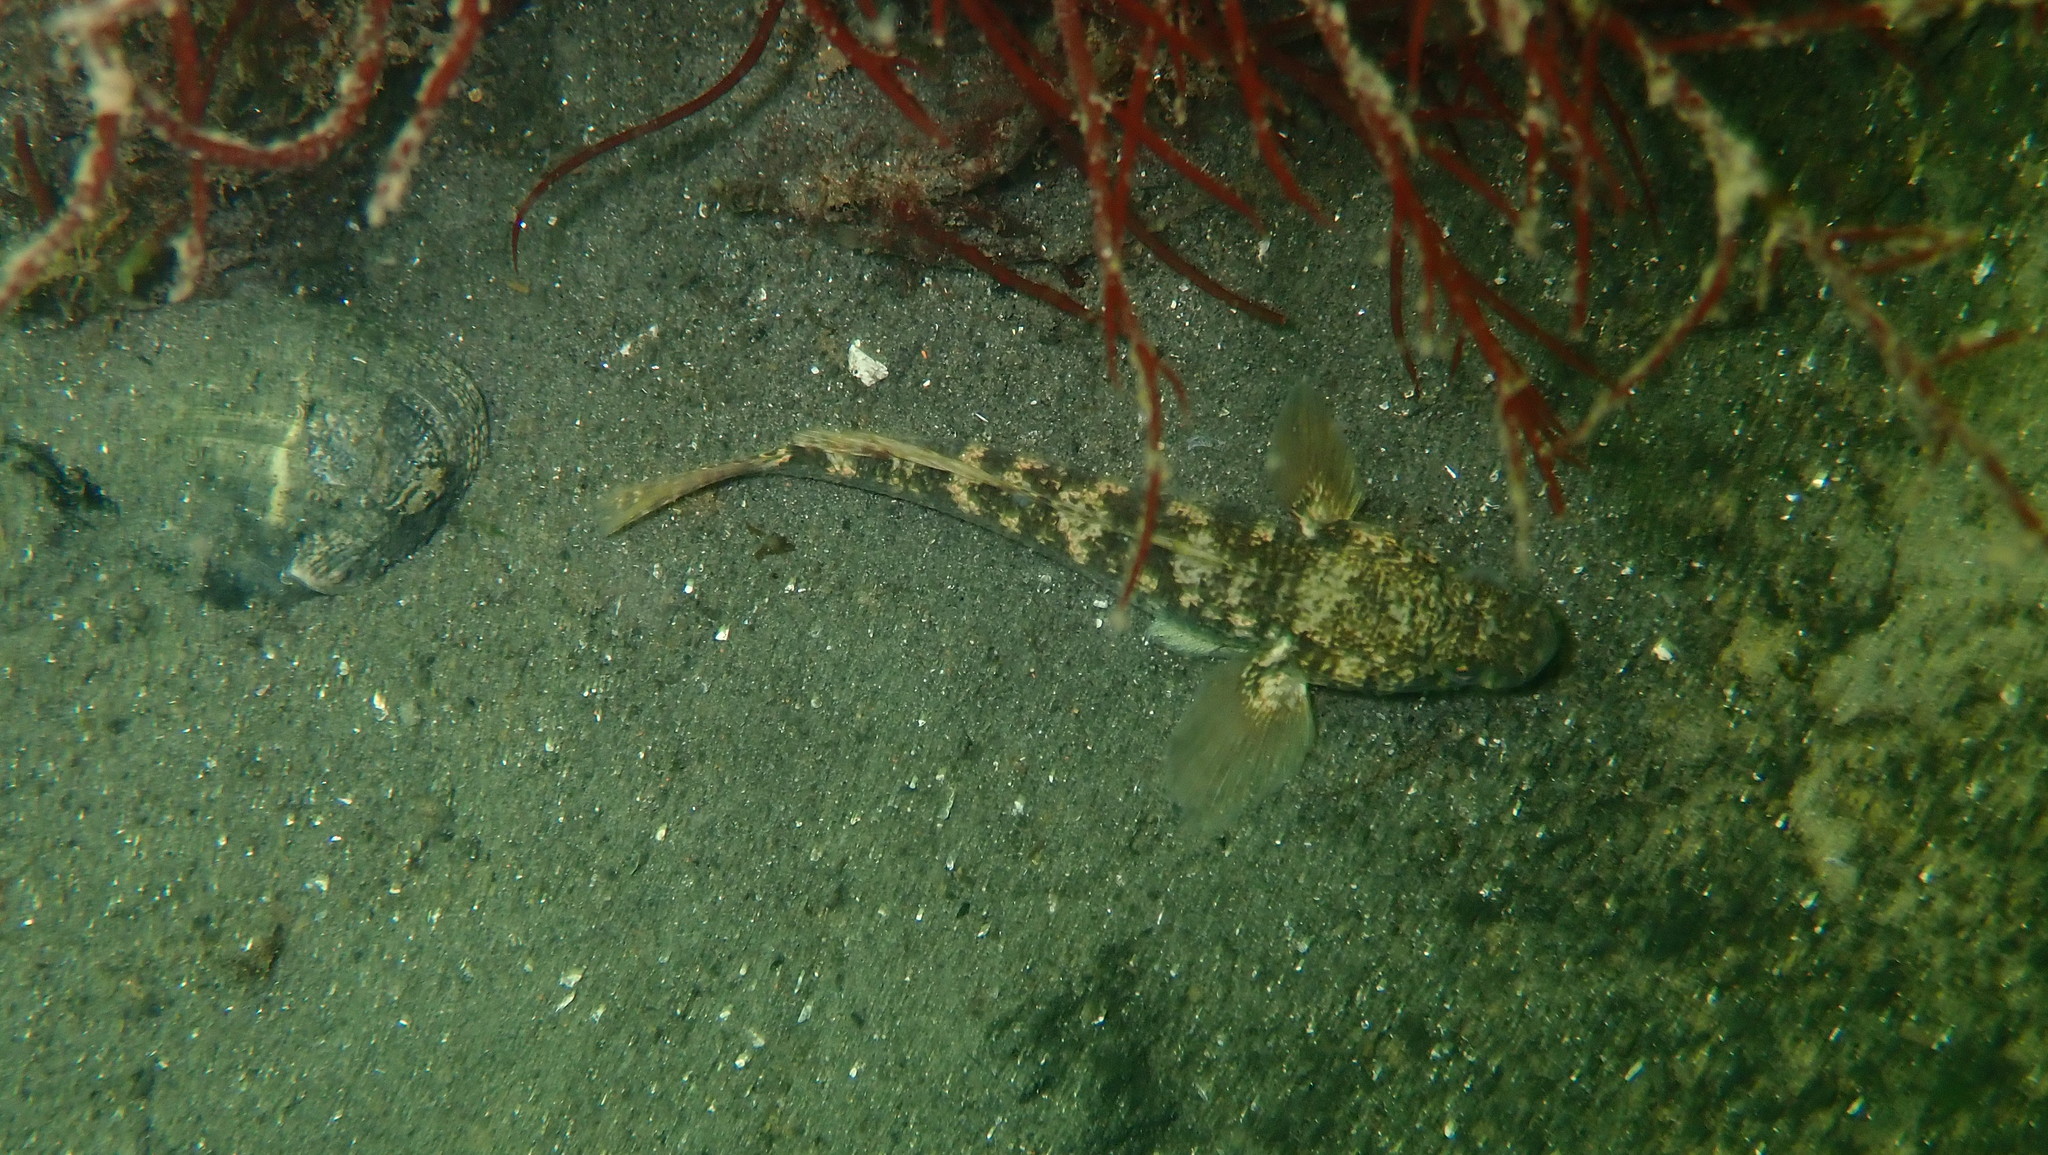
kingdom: Animalia
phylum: Chordata
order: Perciformes
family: Gobiidae
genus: Gobius
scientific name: Gobius niger
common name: Black goby
